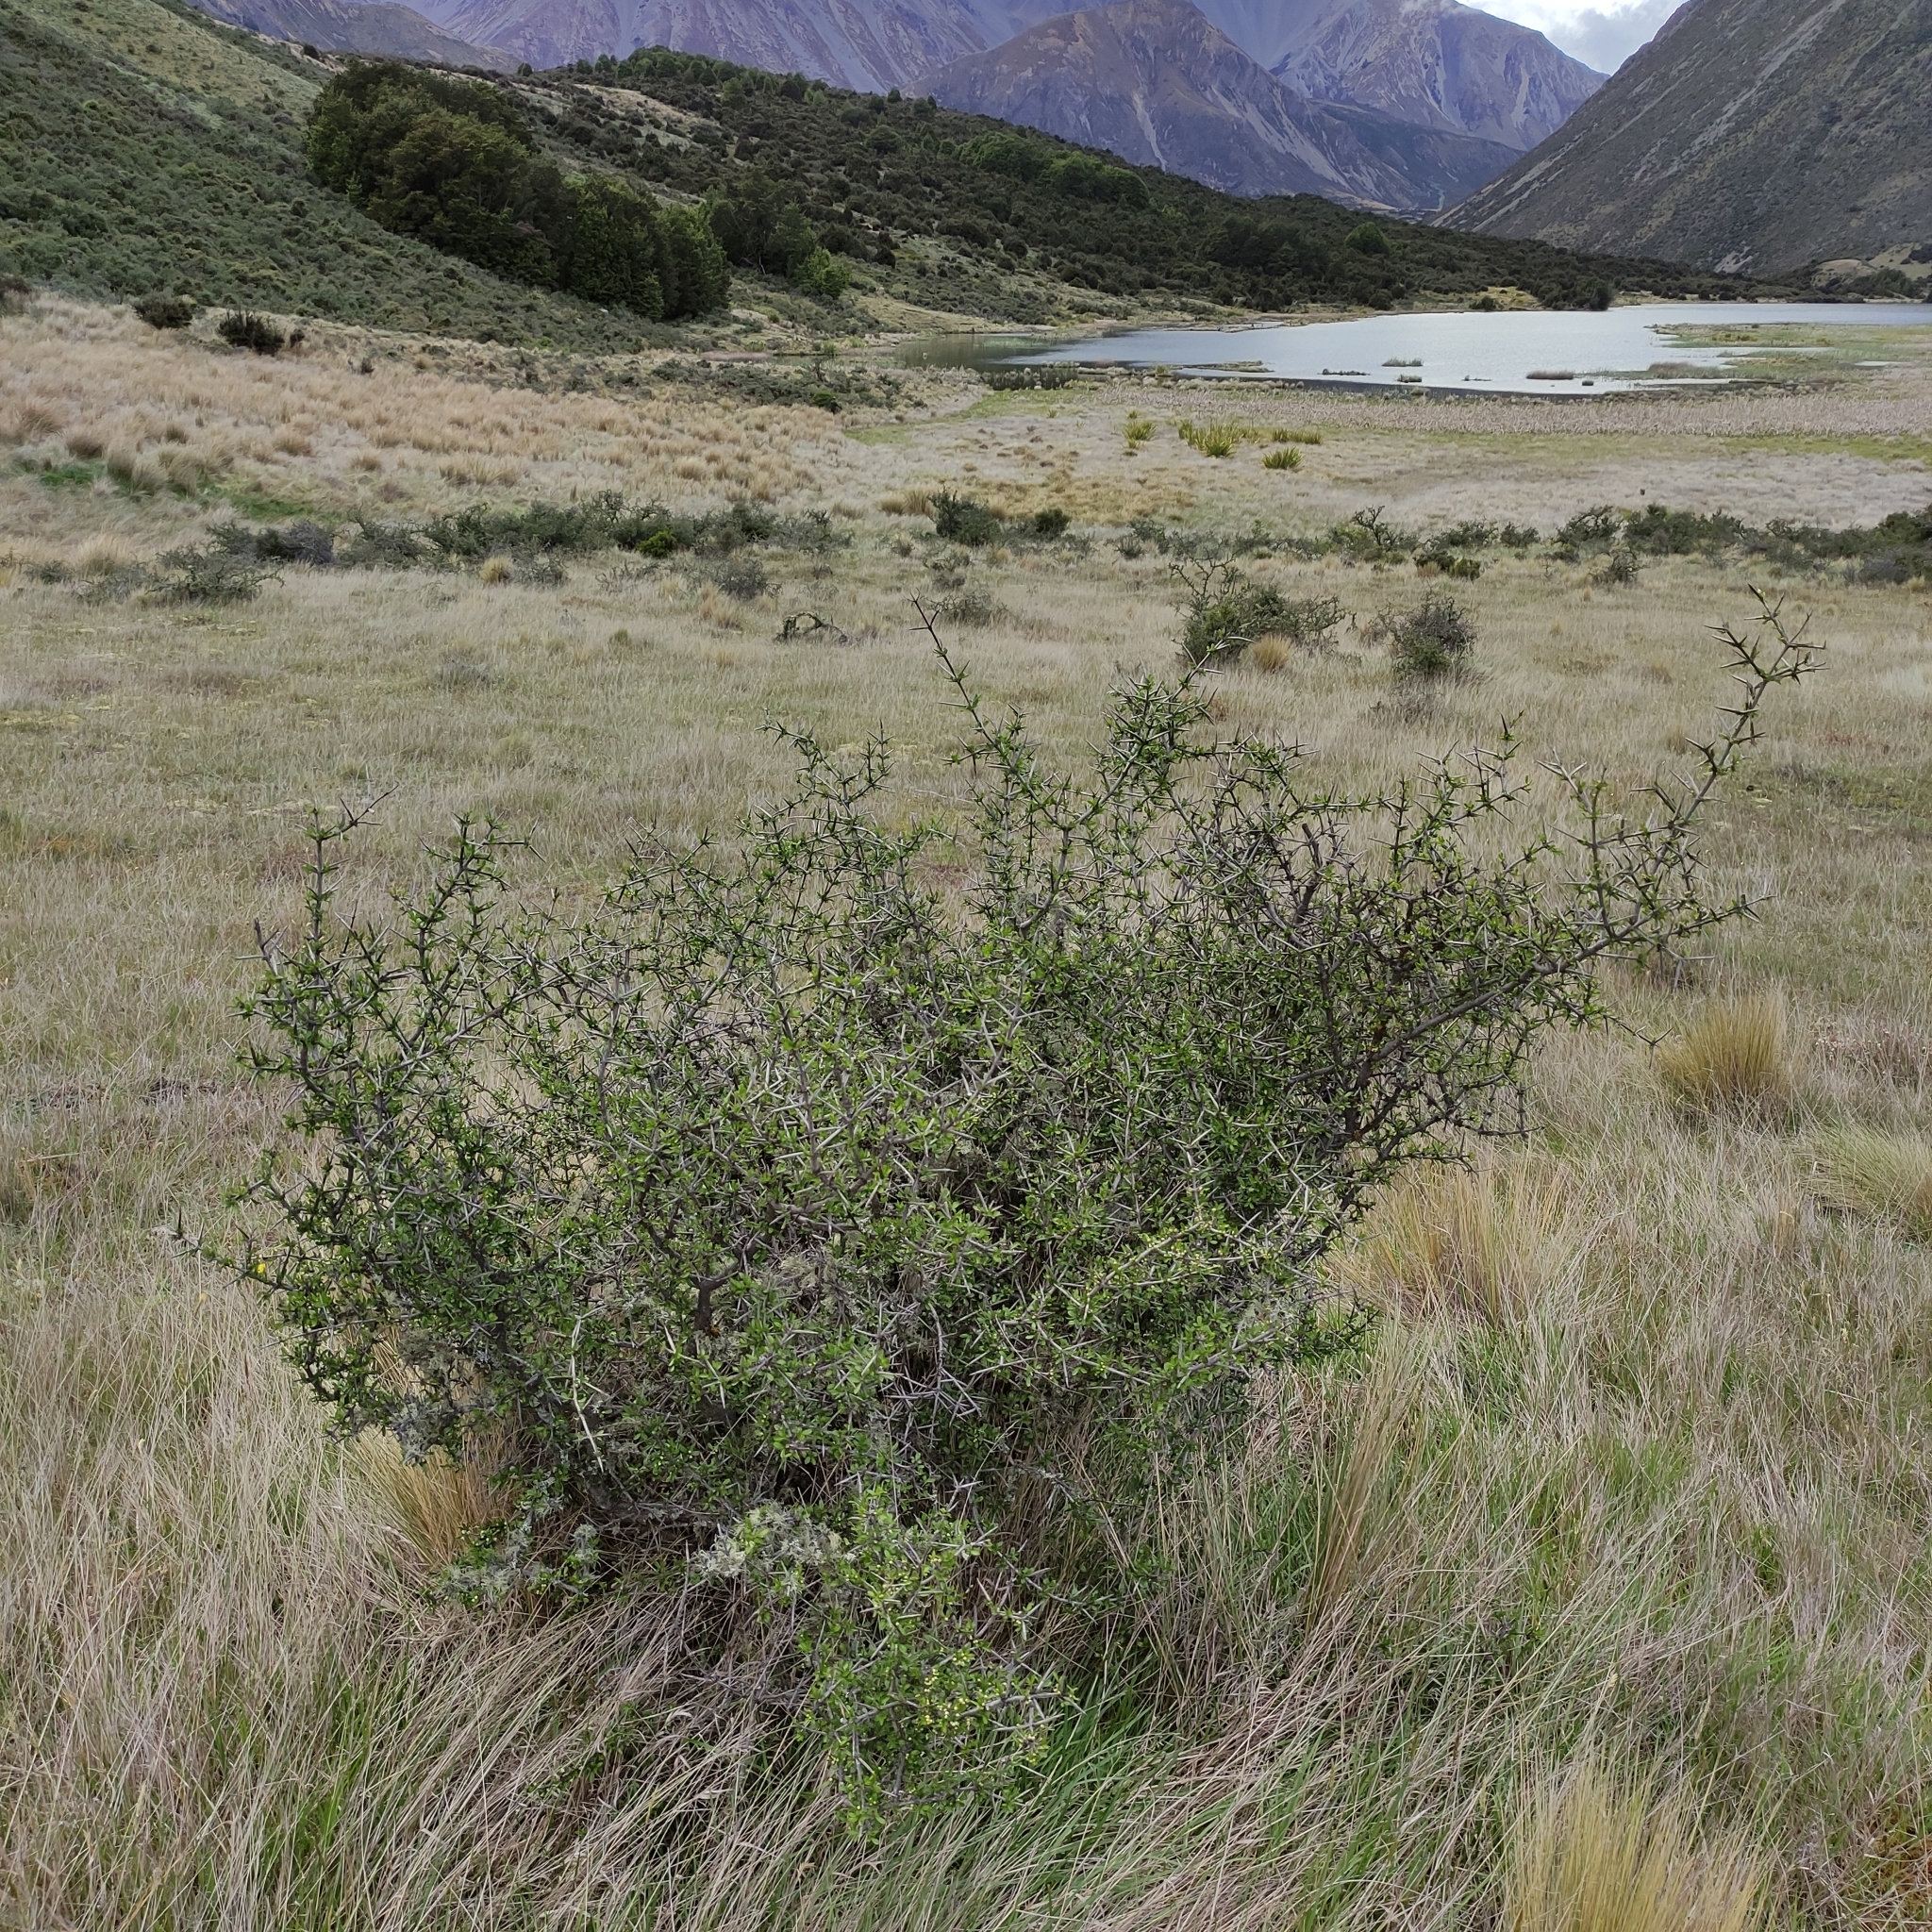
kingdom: Plantae
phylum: Tracheophyta
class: Magnoliopsida
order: Rosales
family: Rhamnaceae
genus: Discaria
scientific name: Discaria toumatou
